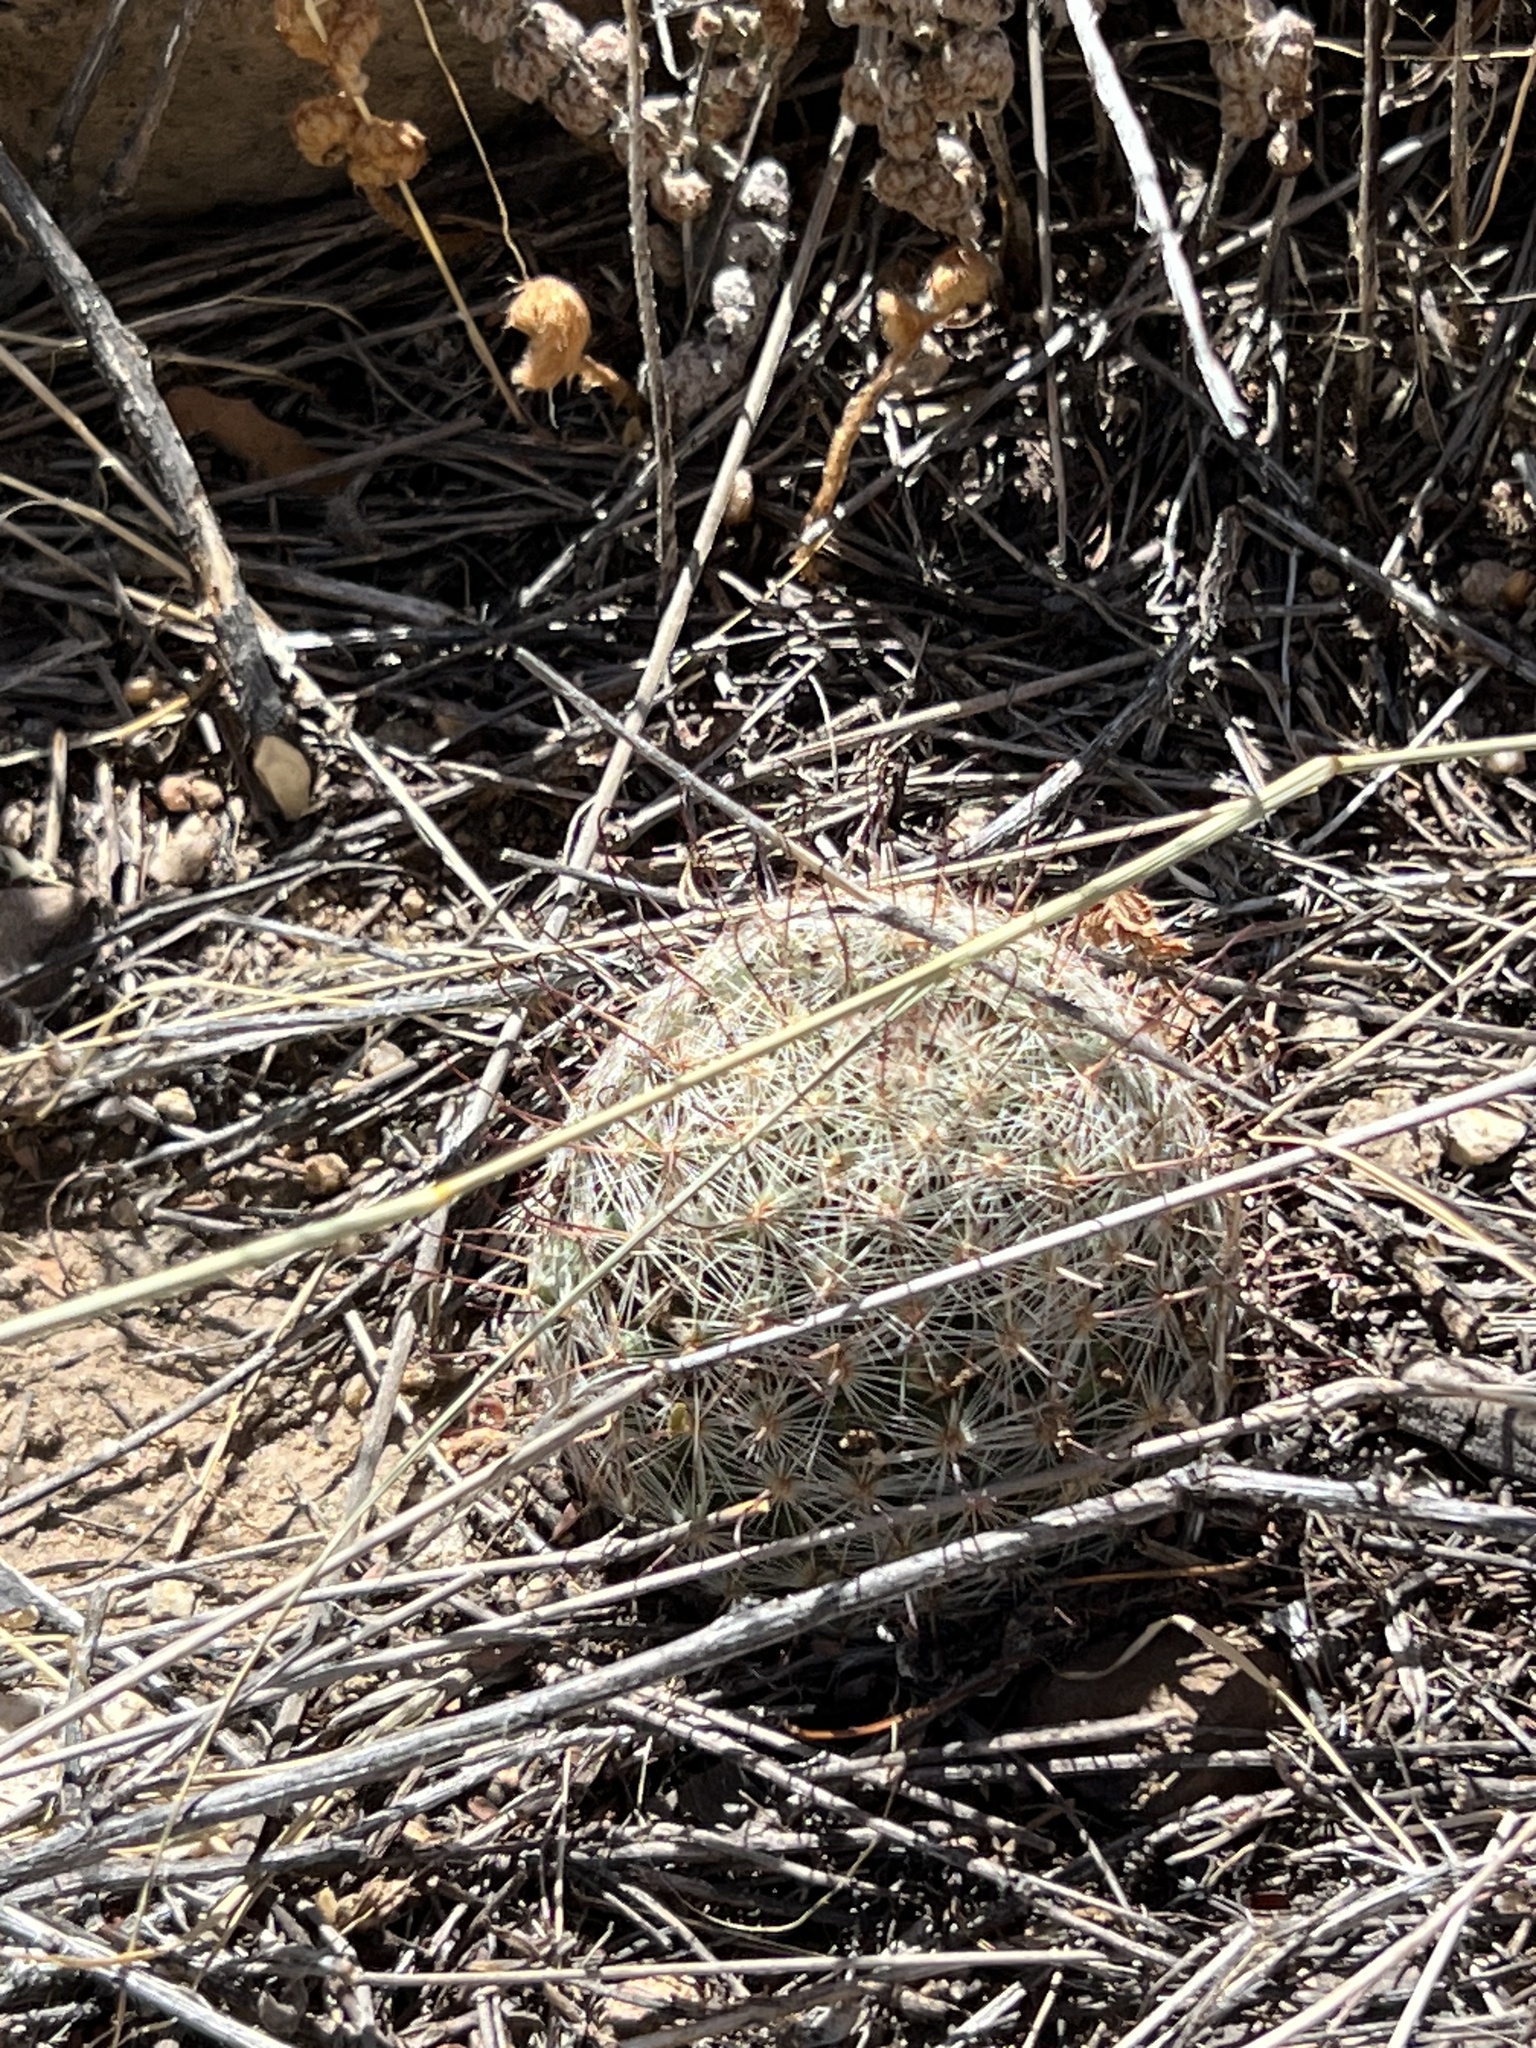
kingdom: Plantae
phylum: Tracheophyta
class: Magnoliopsida
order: Caryophyllales
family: Cactaceae
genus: Cochemiea
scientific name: Cochemiea grahamii
